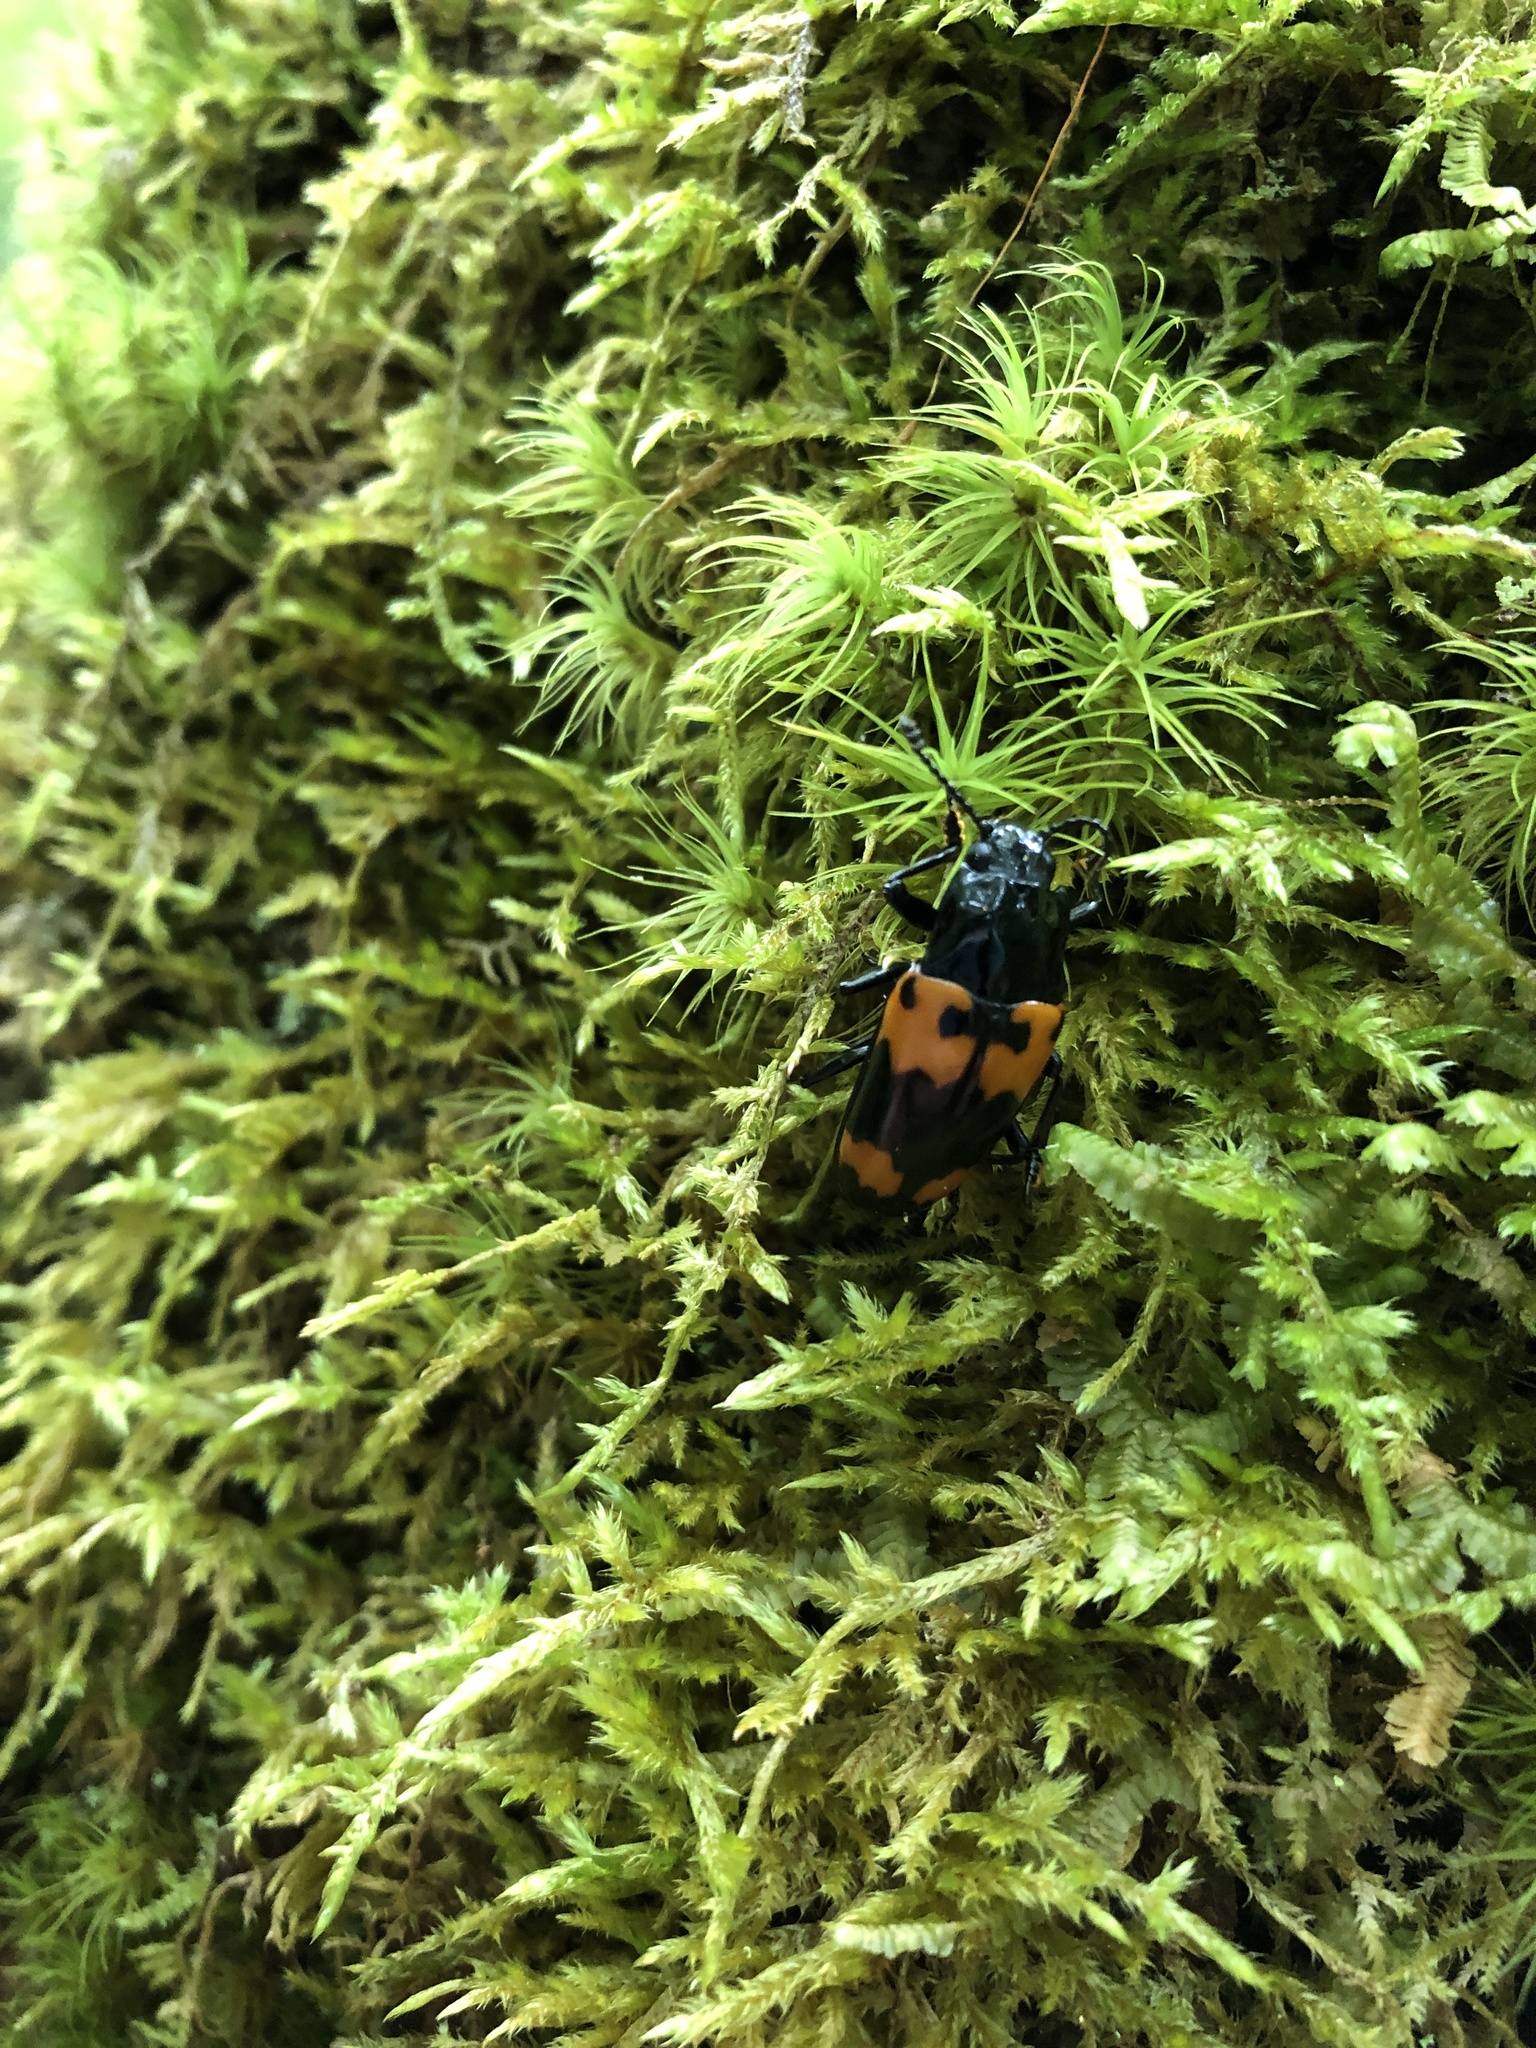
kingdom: Animalia
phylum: Arthropoda
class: Insecta
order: Coleoptera
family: Erotylidae
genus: Megalodacne
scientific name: Megalodacne heros
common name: Pleasing fungus beetle
